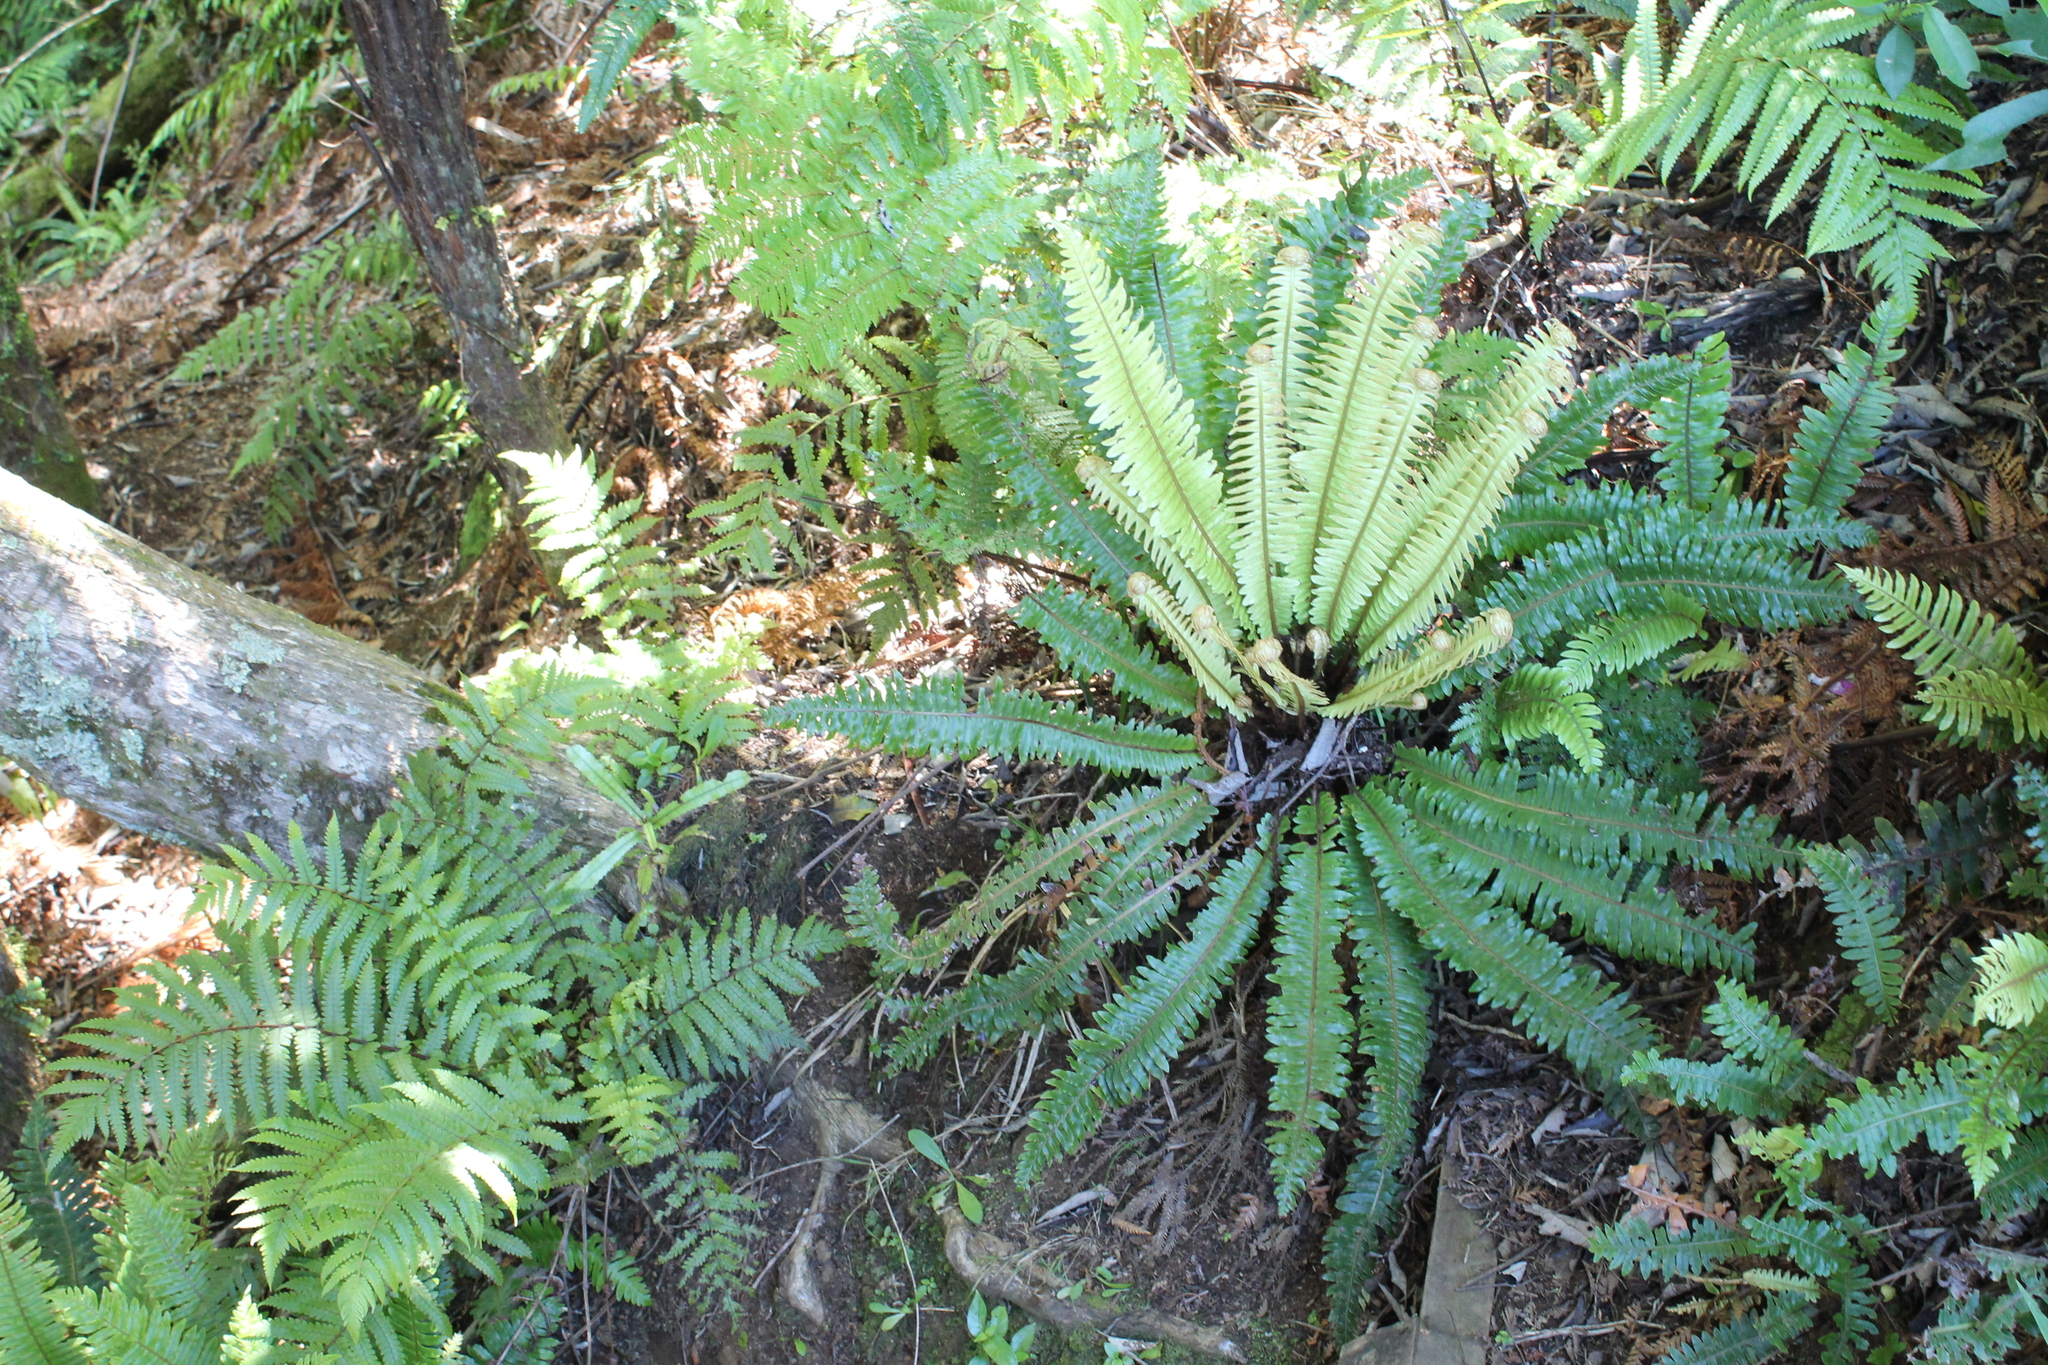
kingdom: Plantae
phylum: Tracheophyta
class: Polypodiopsida
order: Polypodiales
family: Blechnaceae
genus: Lomaria
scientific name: Lomaria discolor
